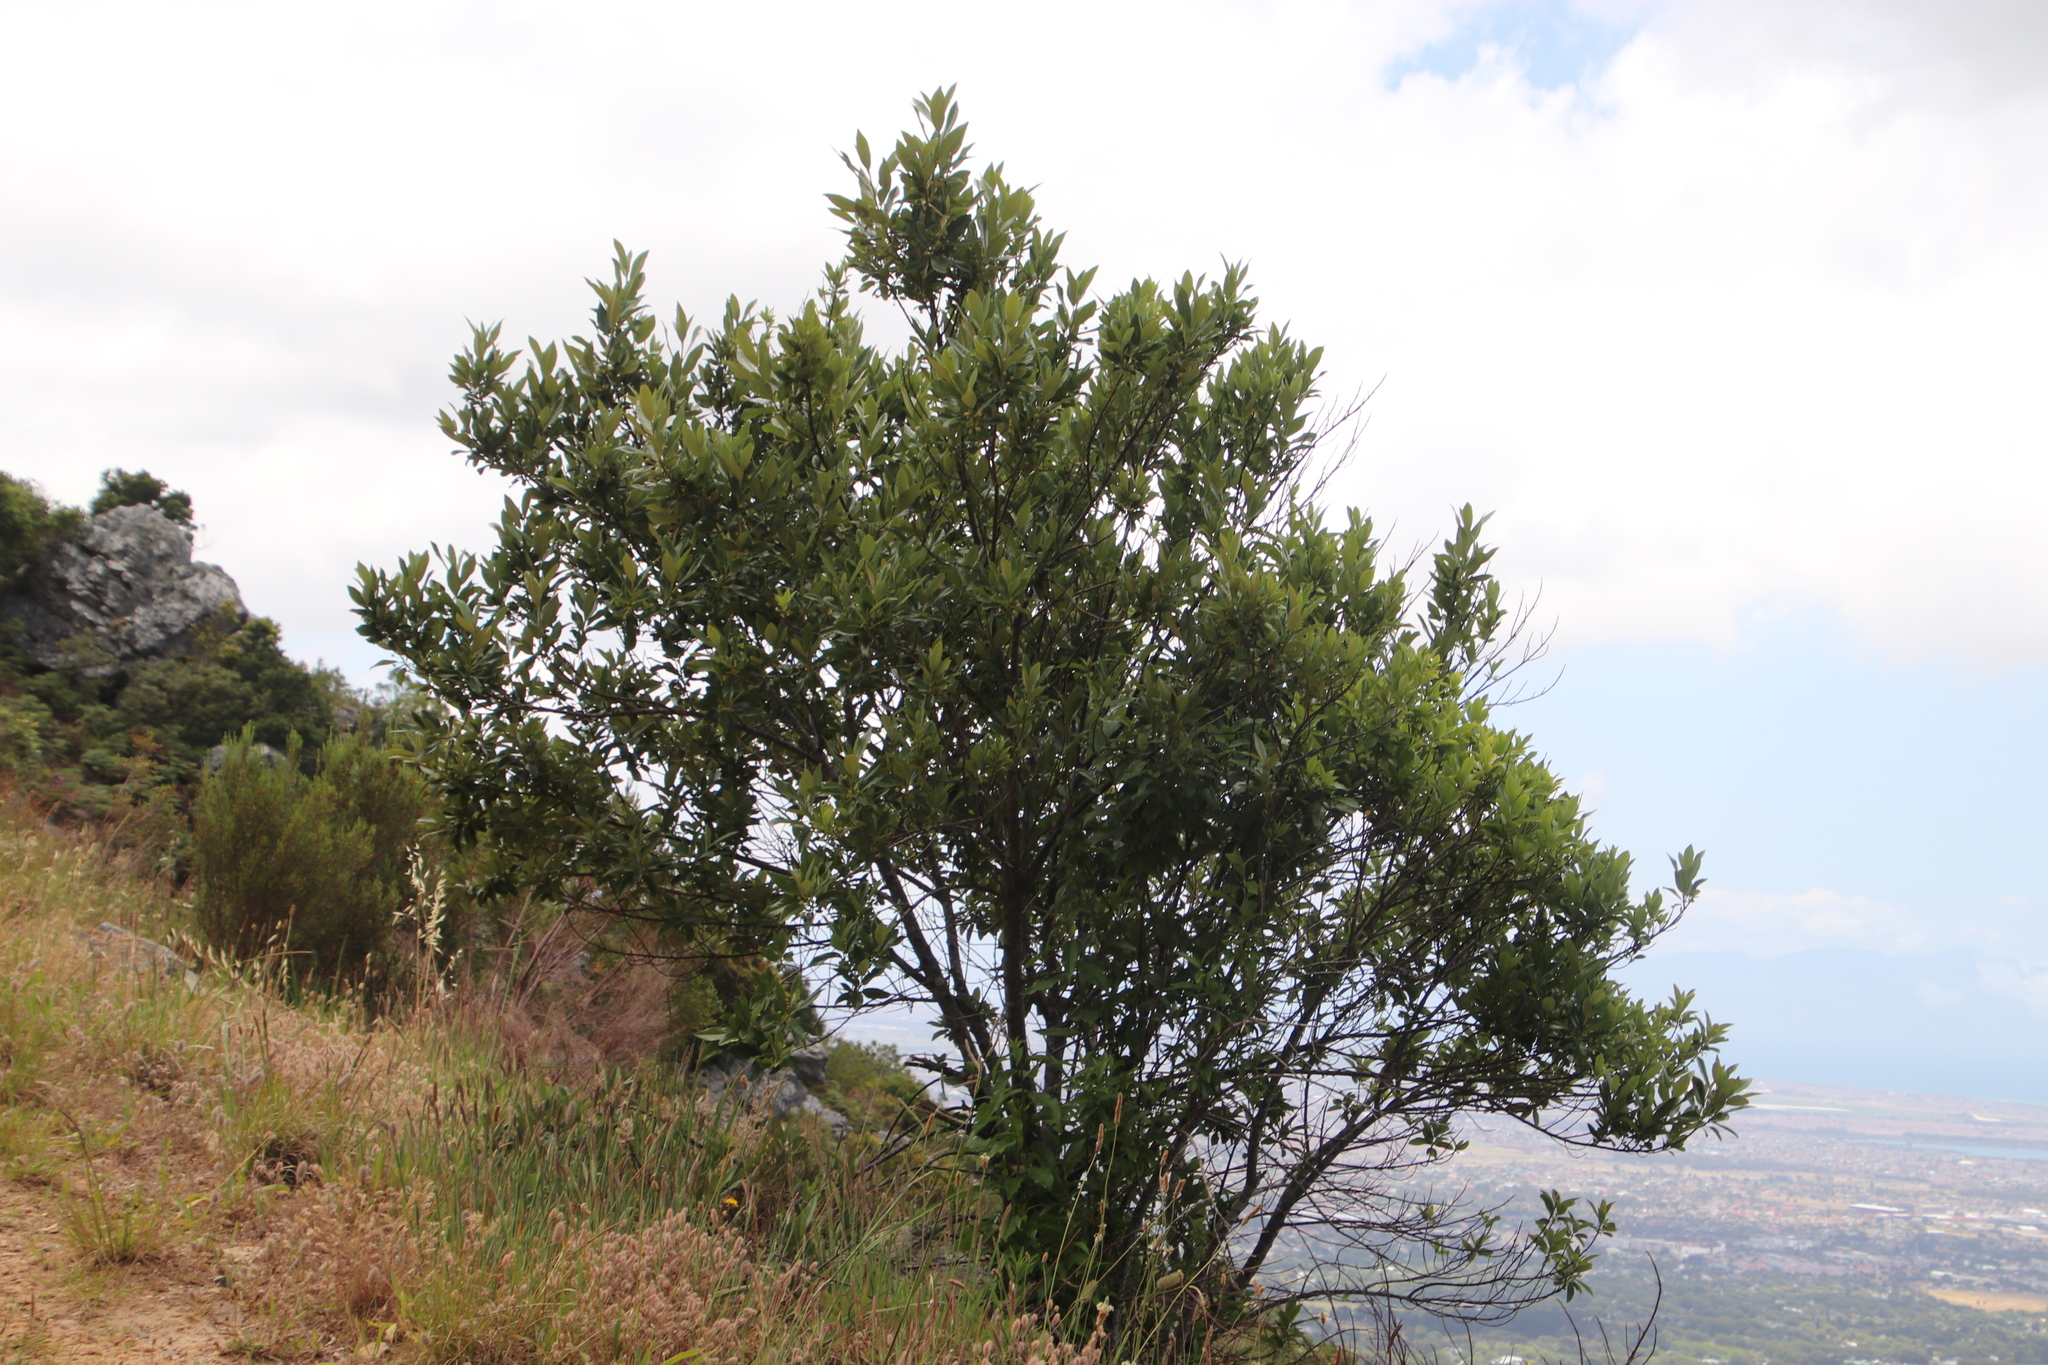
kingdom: Plantae
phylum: Tracheophyta
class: Magnoliopsida
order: Malpighiales
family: Achariaceae
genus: Kiggelaria
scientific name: Kiggelaria africana
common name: Wild peach
